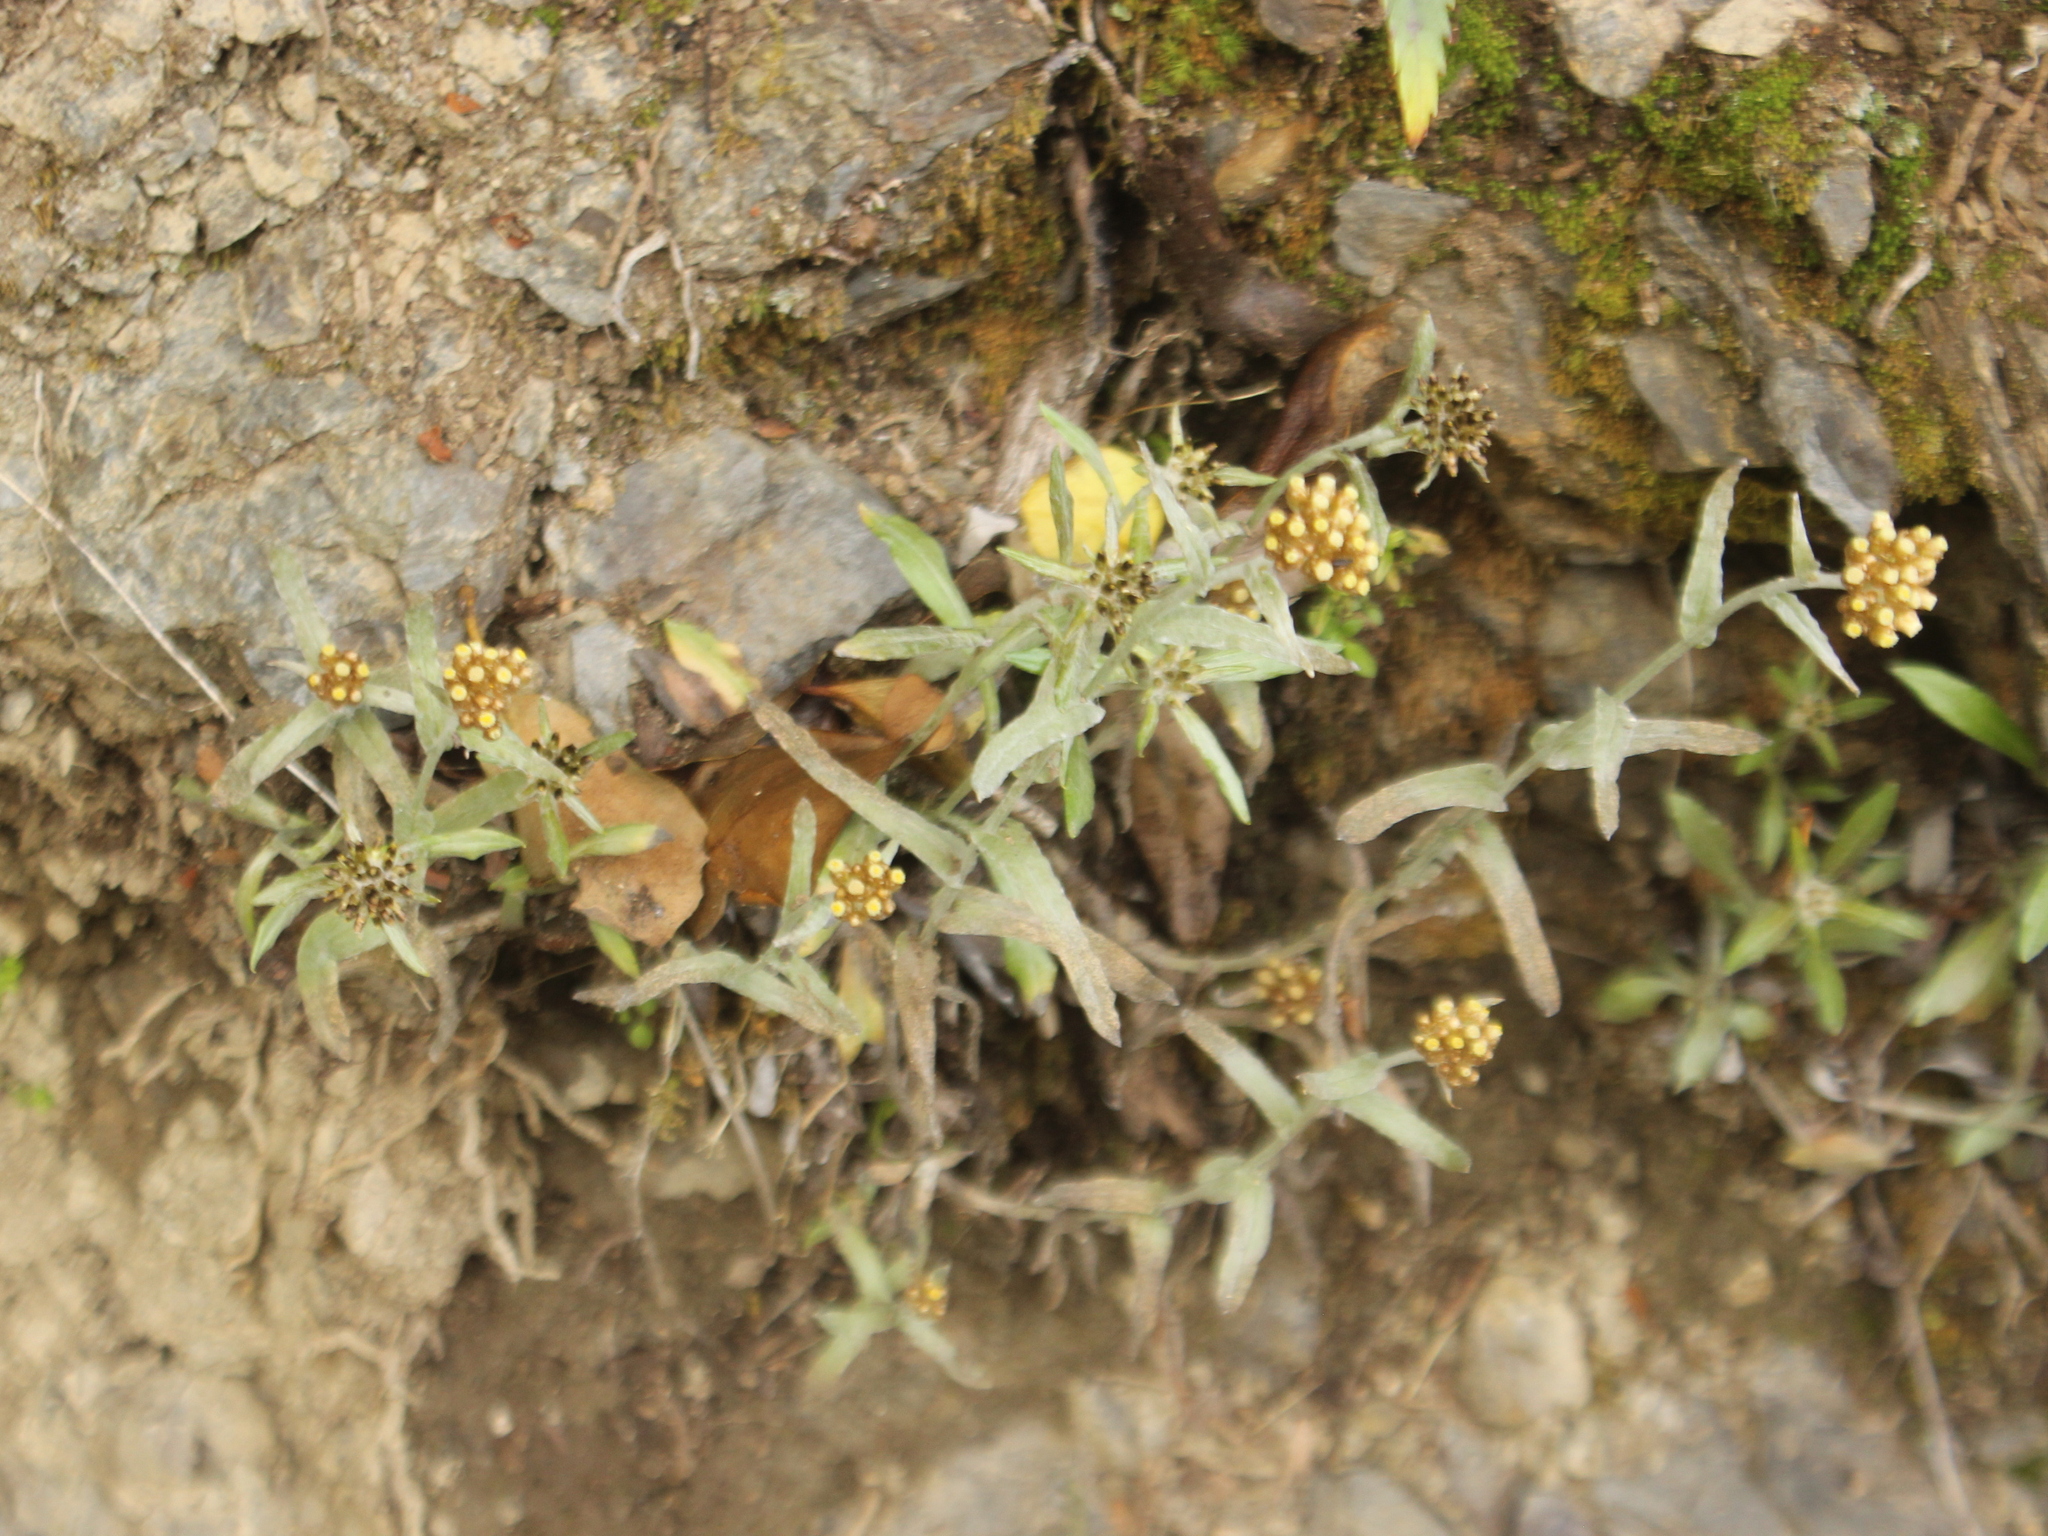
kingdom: Plantae
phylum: Tracheophyta
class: Magnoliopsida
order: Asterales
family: Asteraceae
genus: Pseudognaphalium
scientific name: Pseudognaphalium
